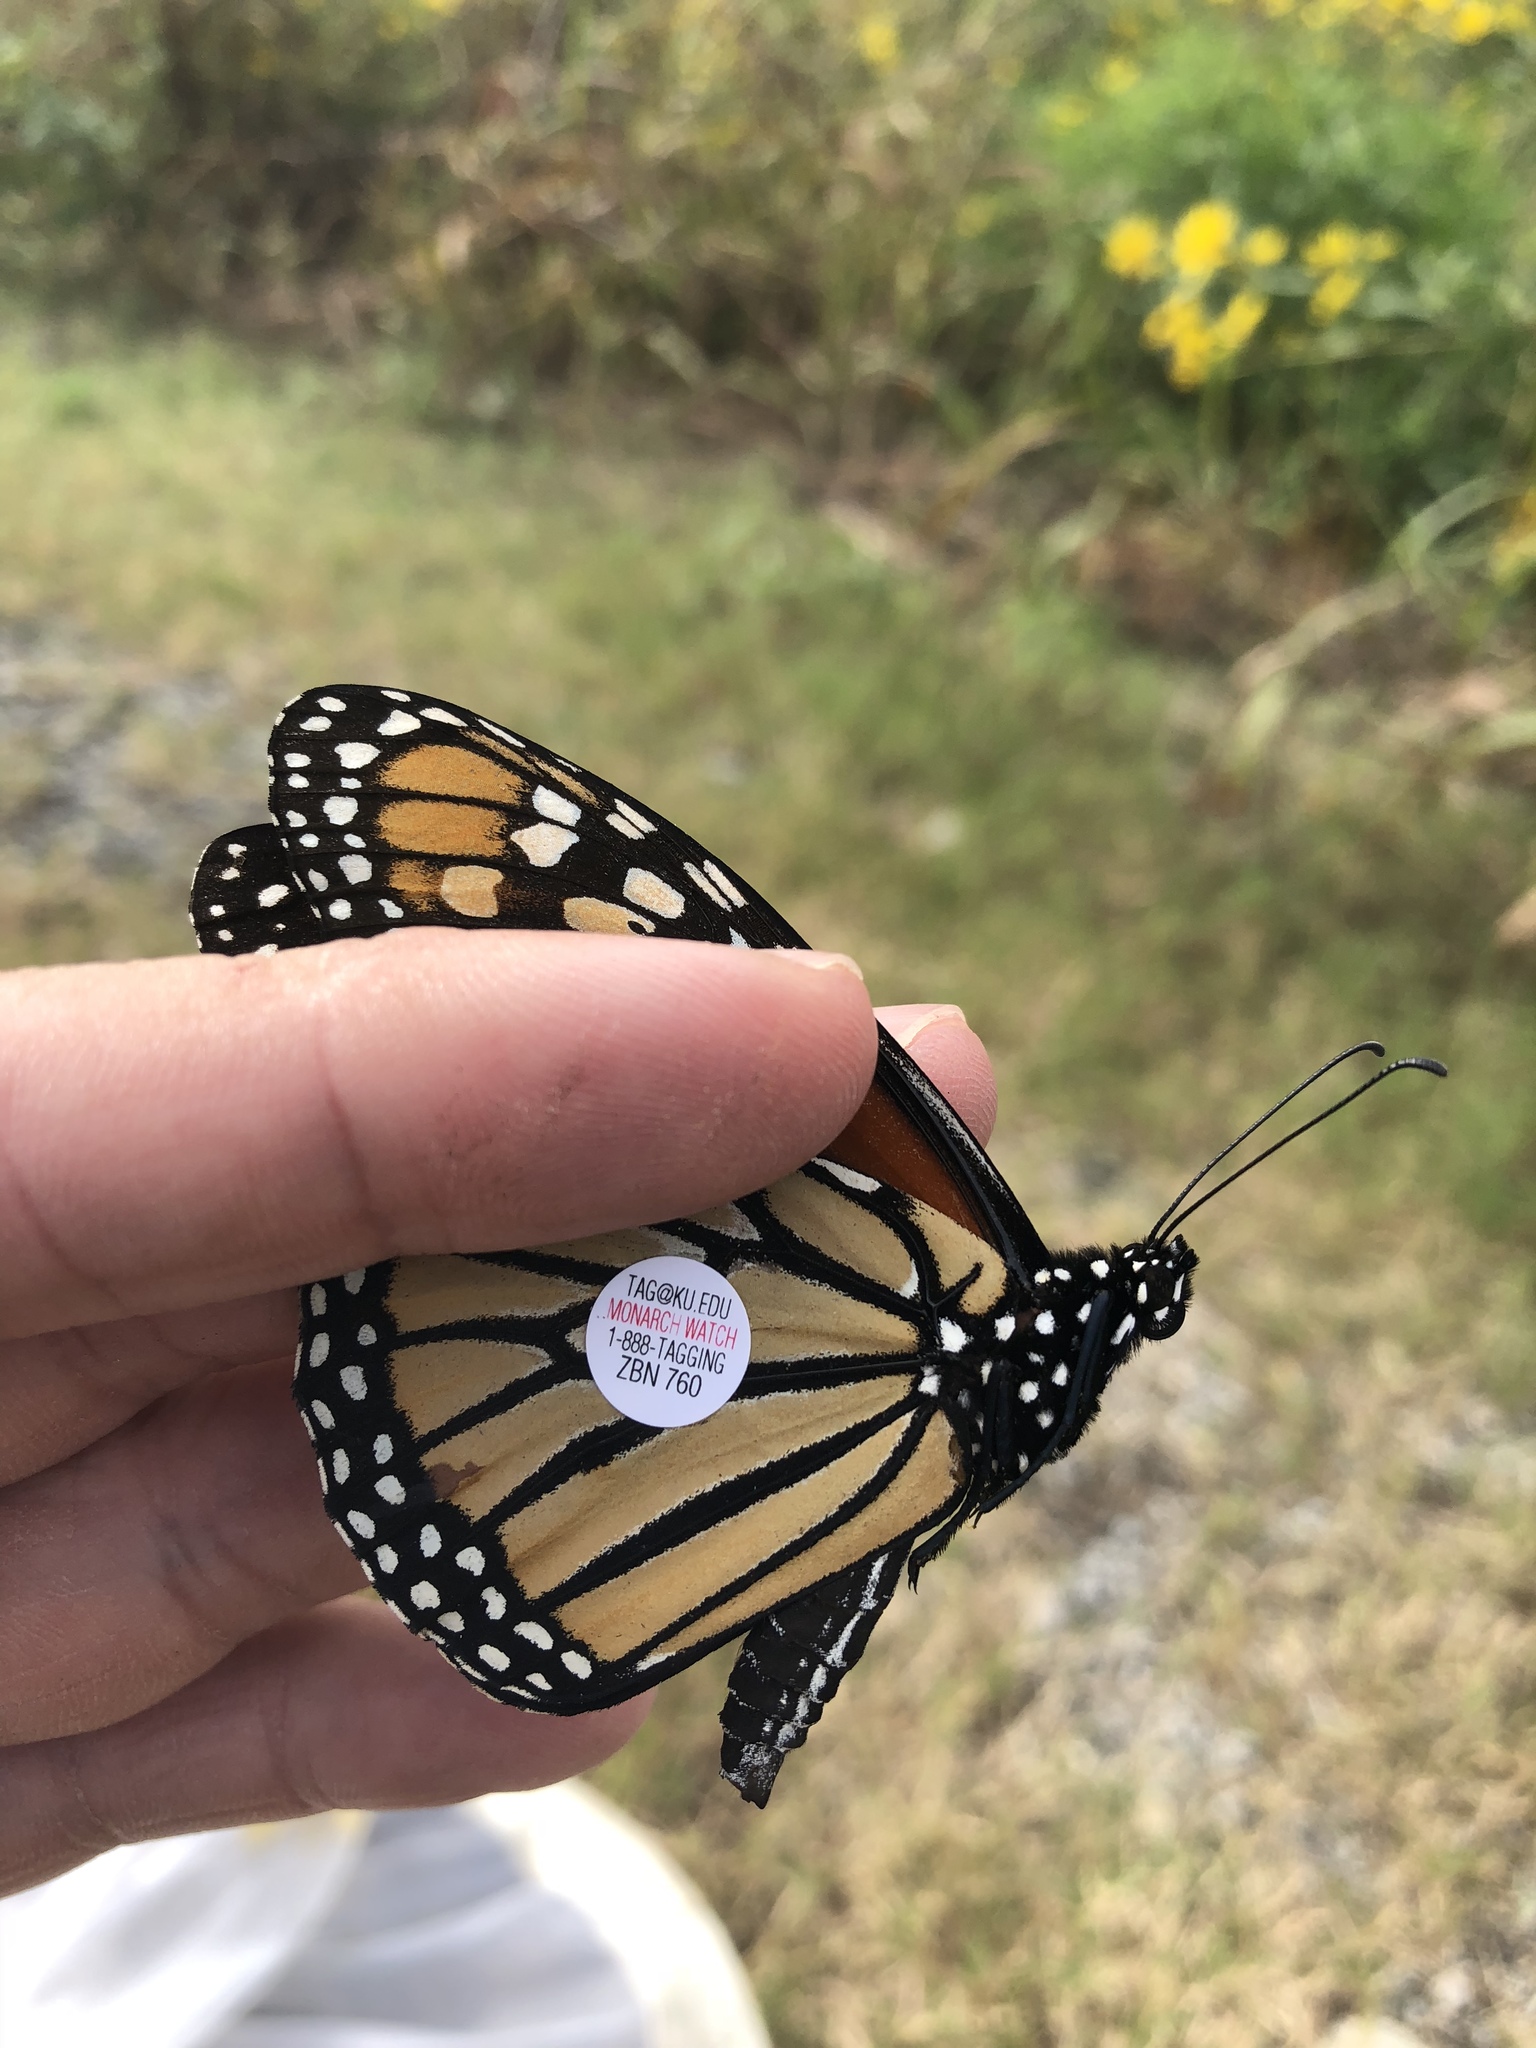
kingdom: Animalia
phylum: Arthropoda
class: Insecta
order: Lepidoptera
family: Nymphalidae
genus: Danaus
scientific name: Danaus plexippus
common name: Monarch
